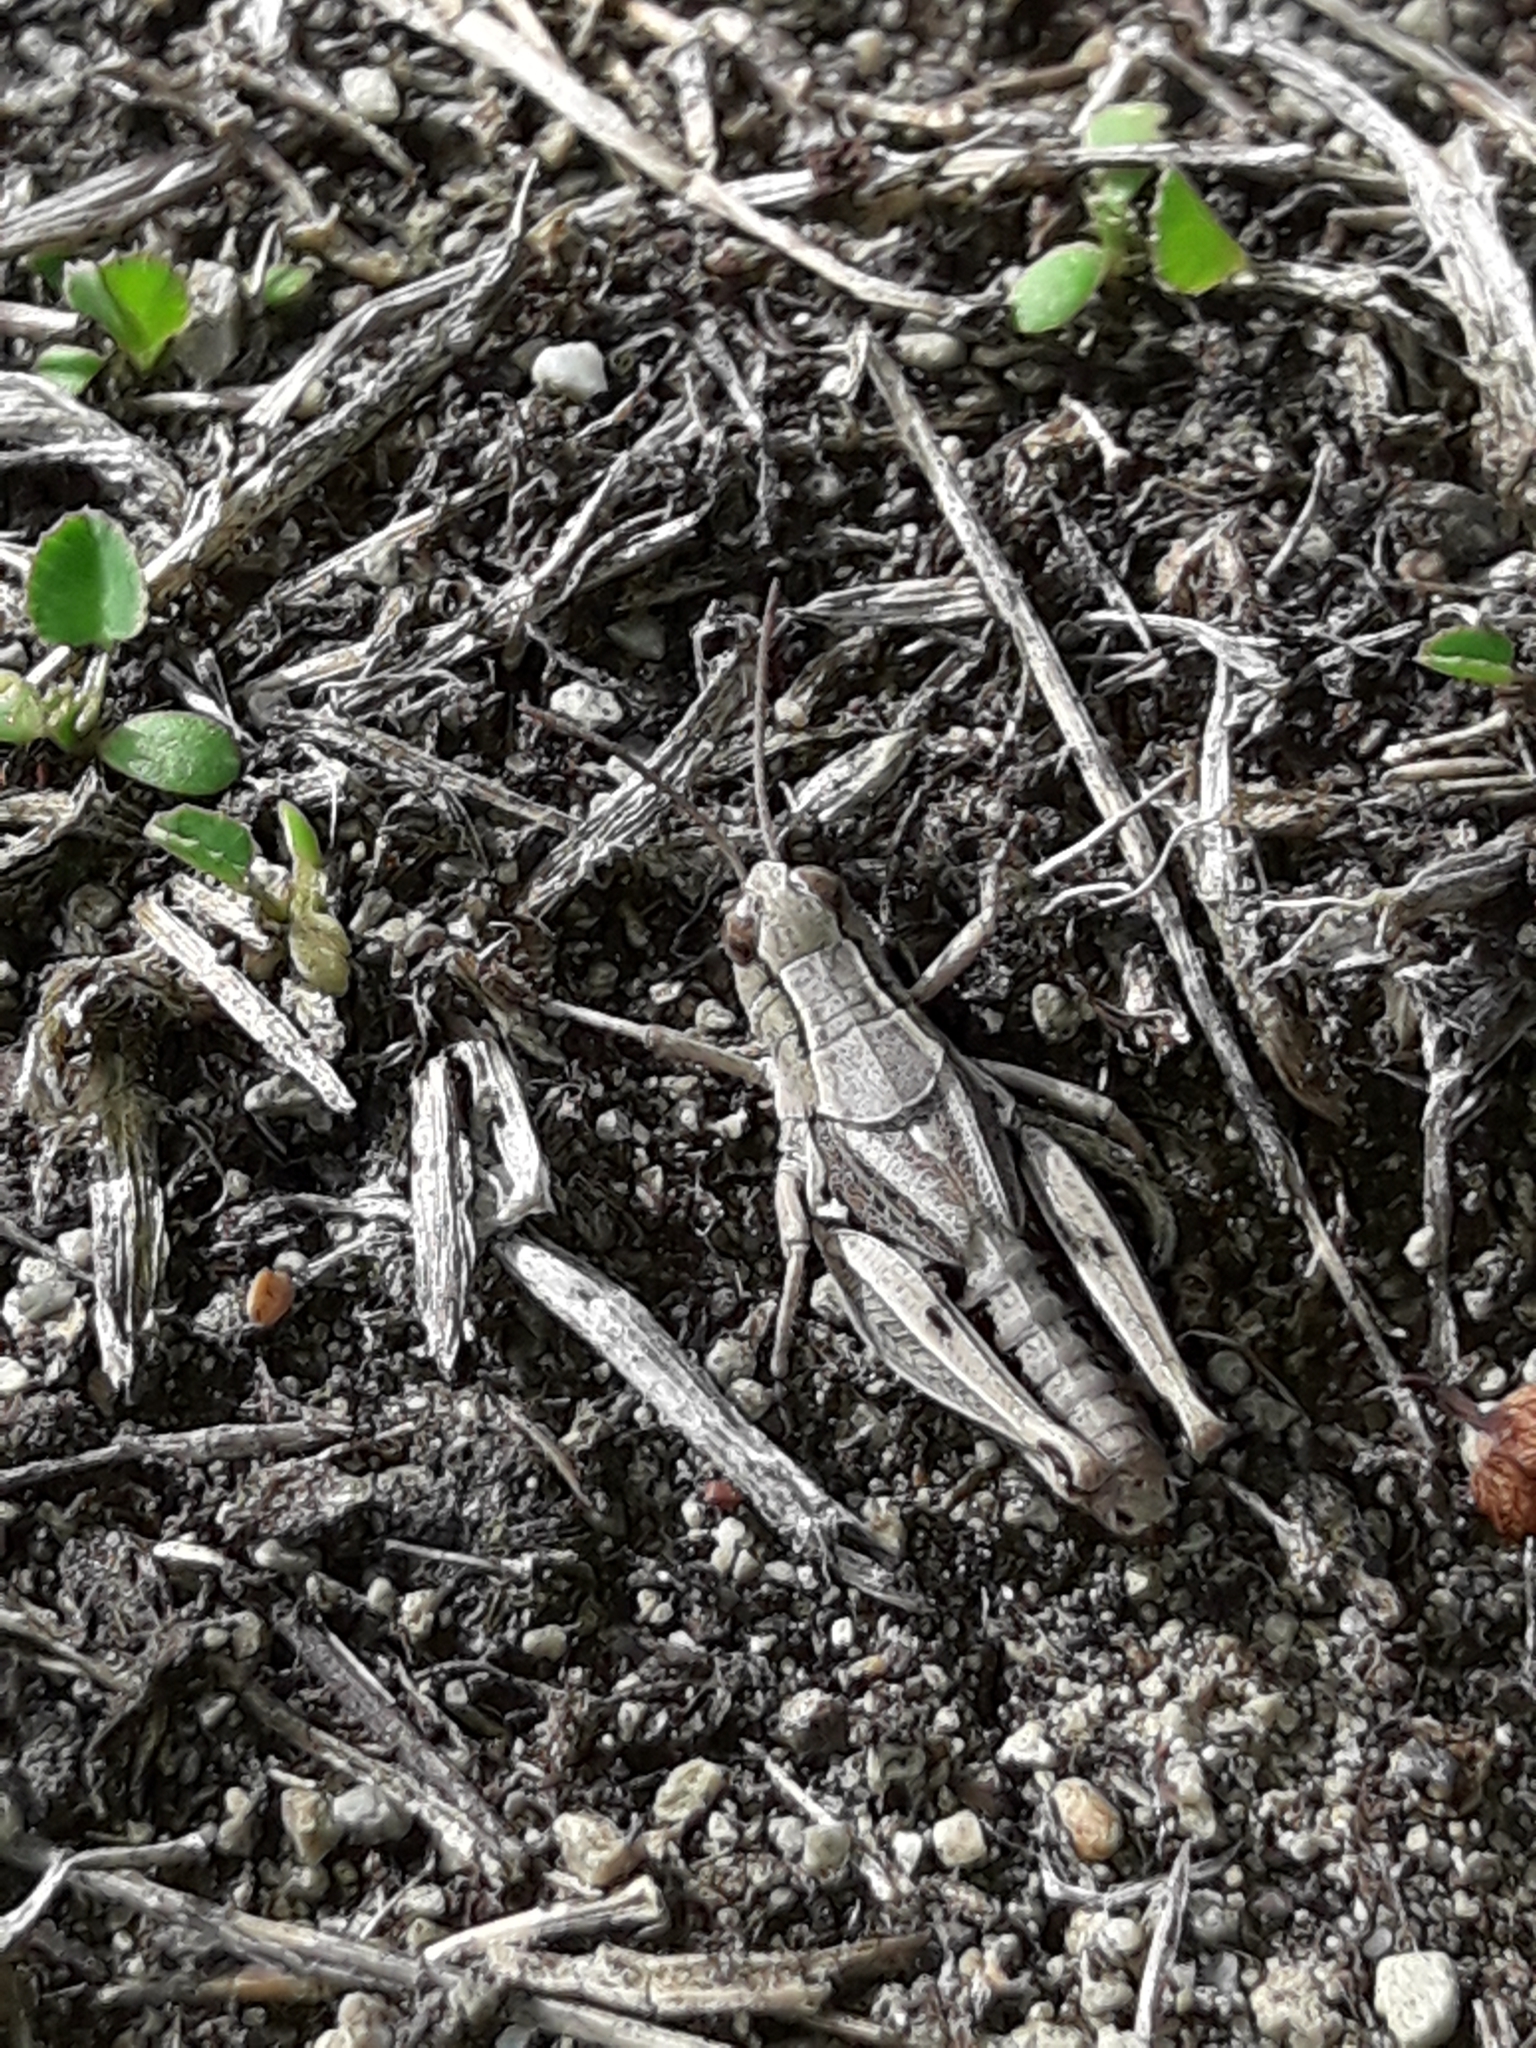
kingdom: Animalia
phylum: Arthropoda
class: Insecta
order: Orthoptera
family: Acrididae
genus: Phaulacridium
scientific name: Phaulacridium marginale
